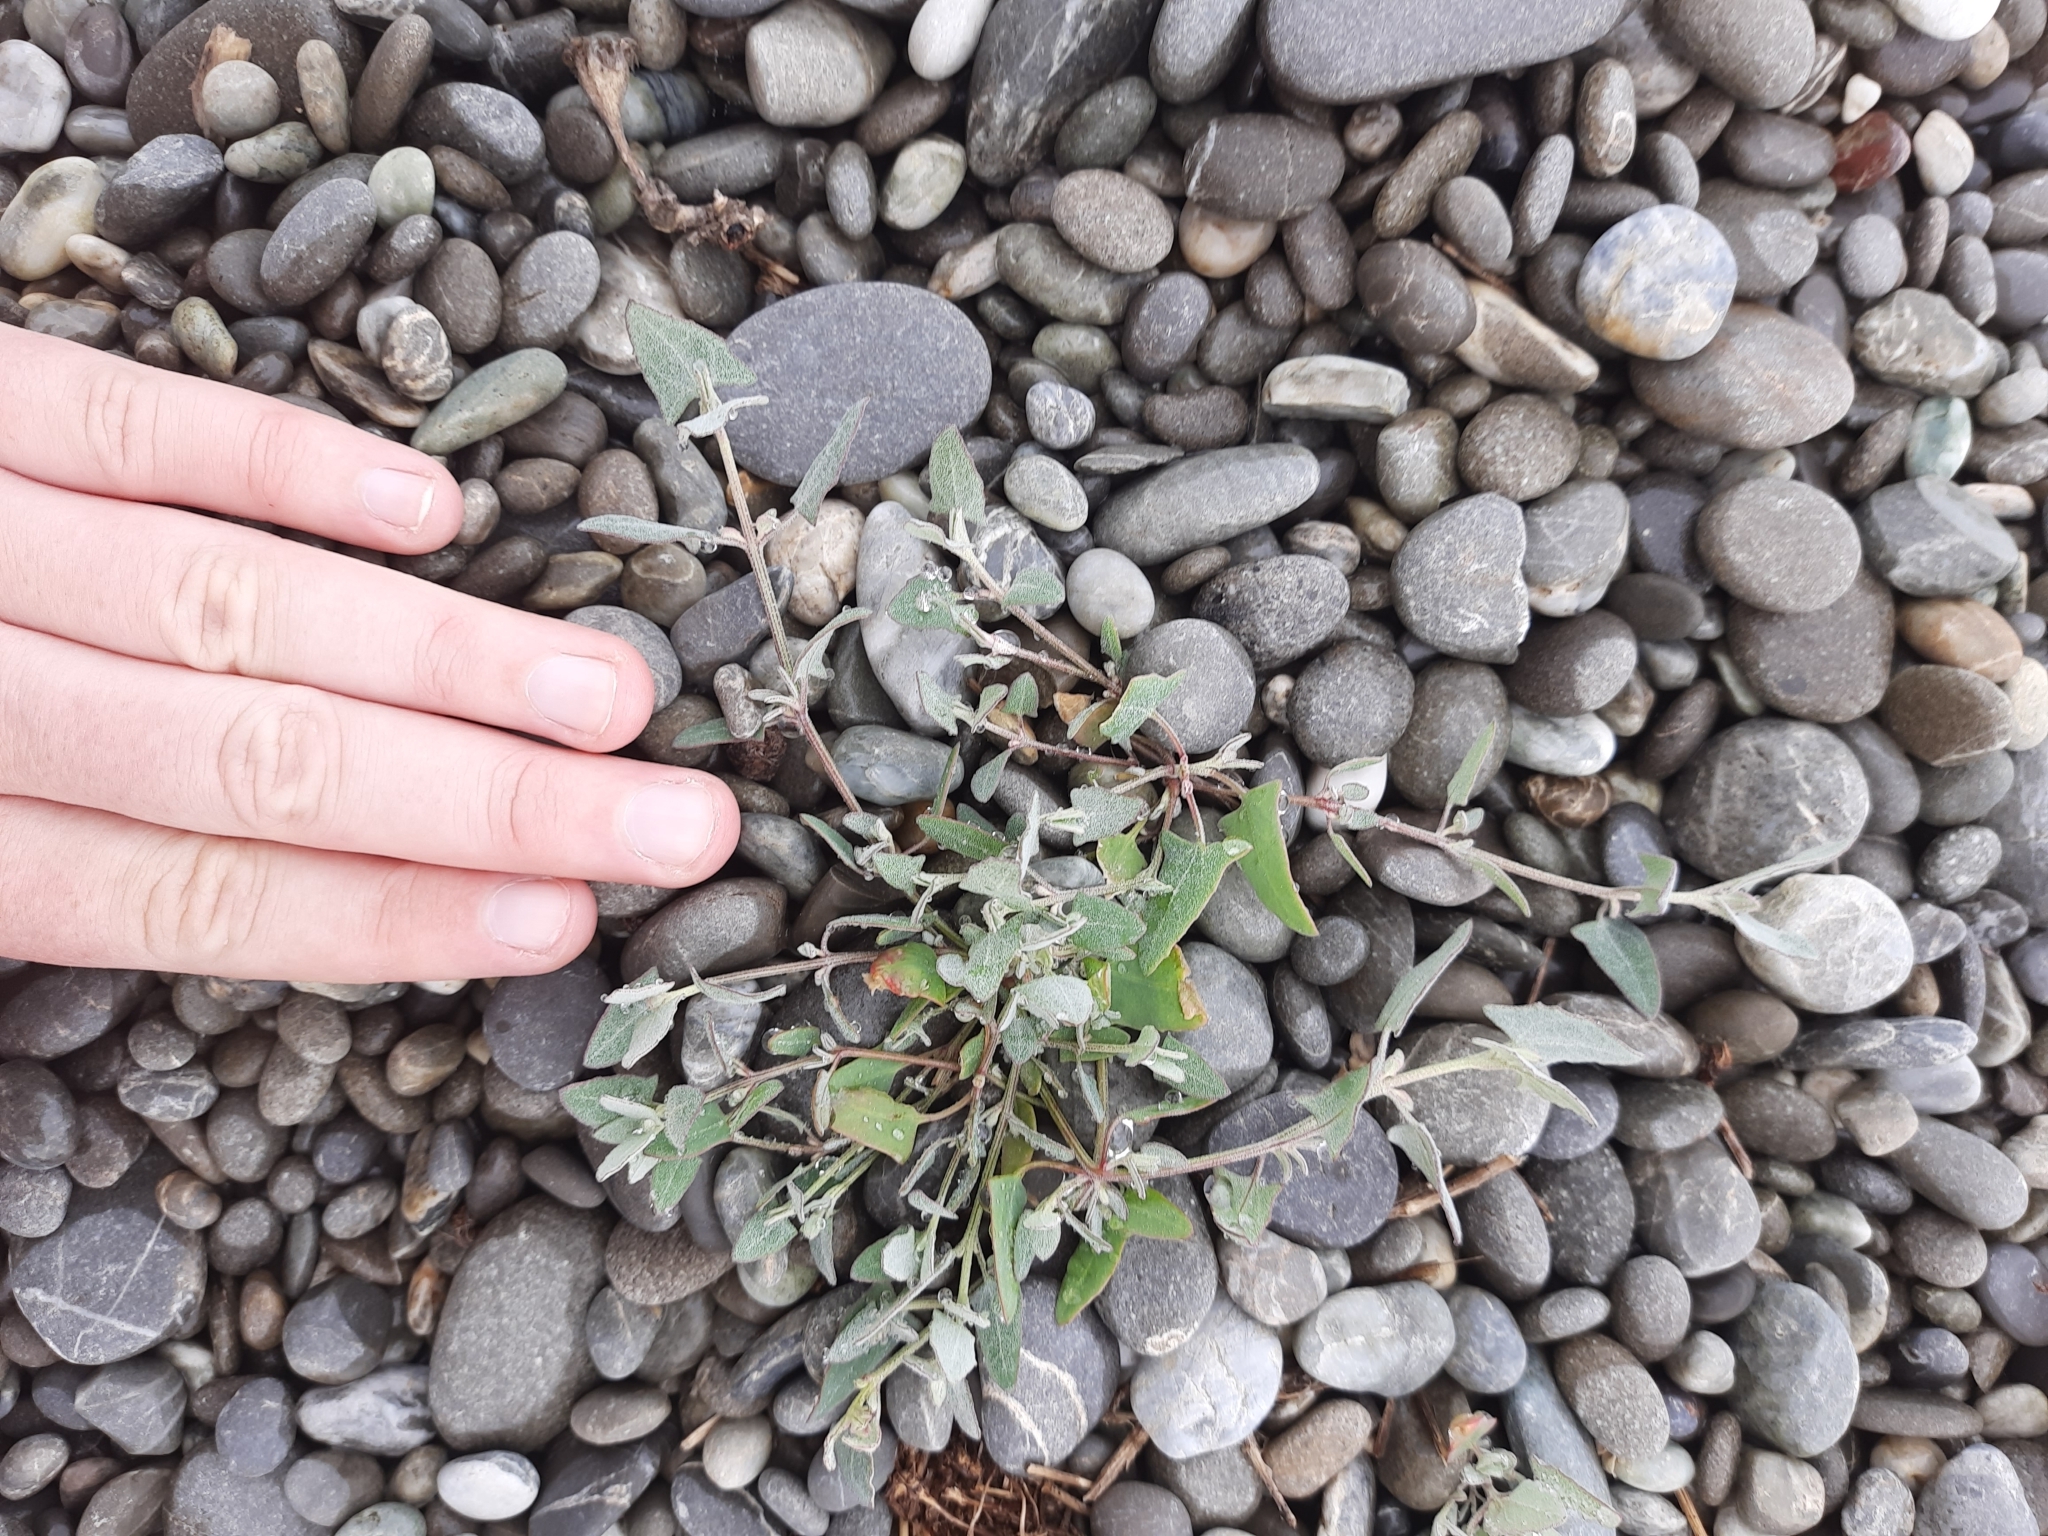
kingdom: Plantae
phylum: Tracheophyta
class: Magnoliopsida
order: Caryophyllales
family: Amaranthaceae
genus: Atriplex
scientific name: Atriplex prostrata
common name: Spear-leaved orache
